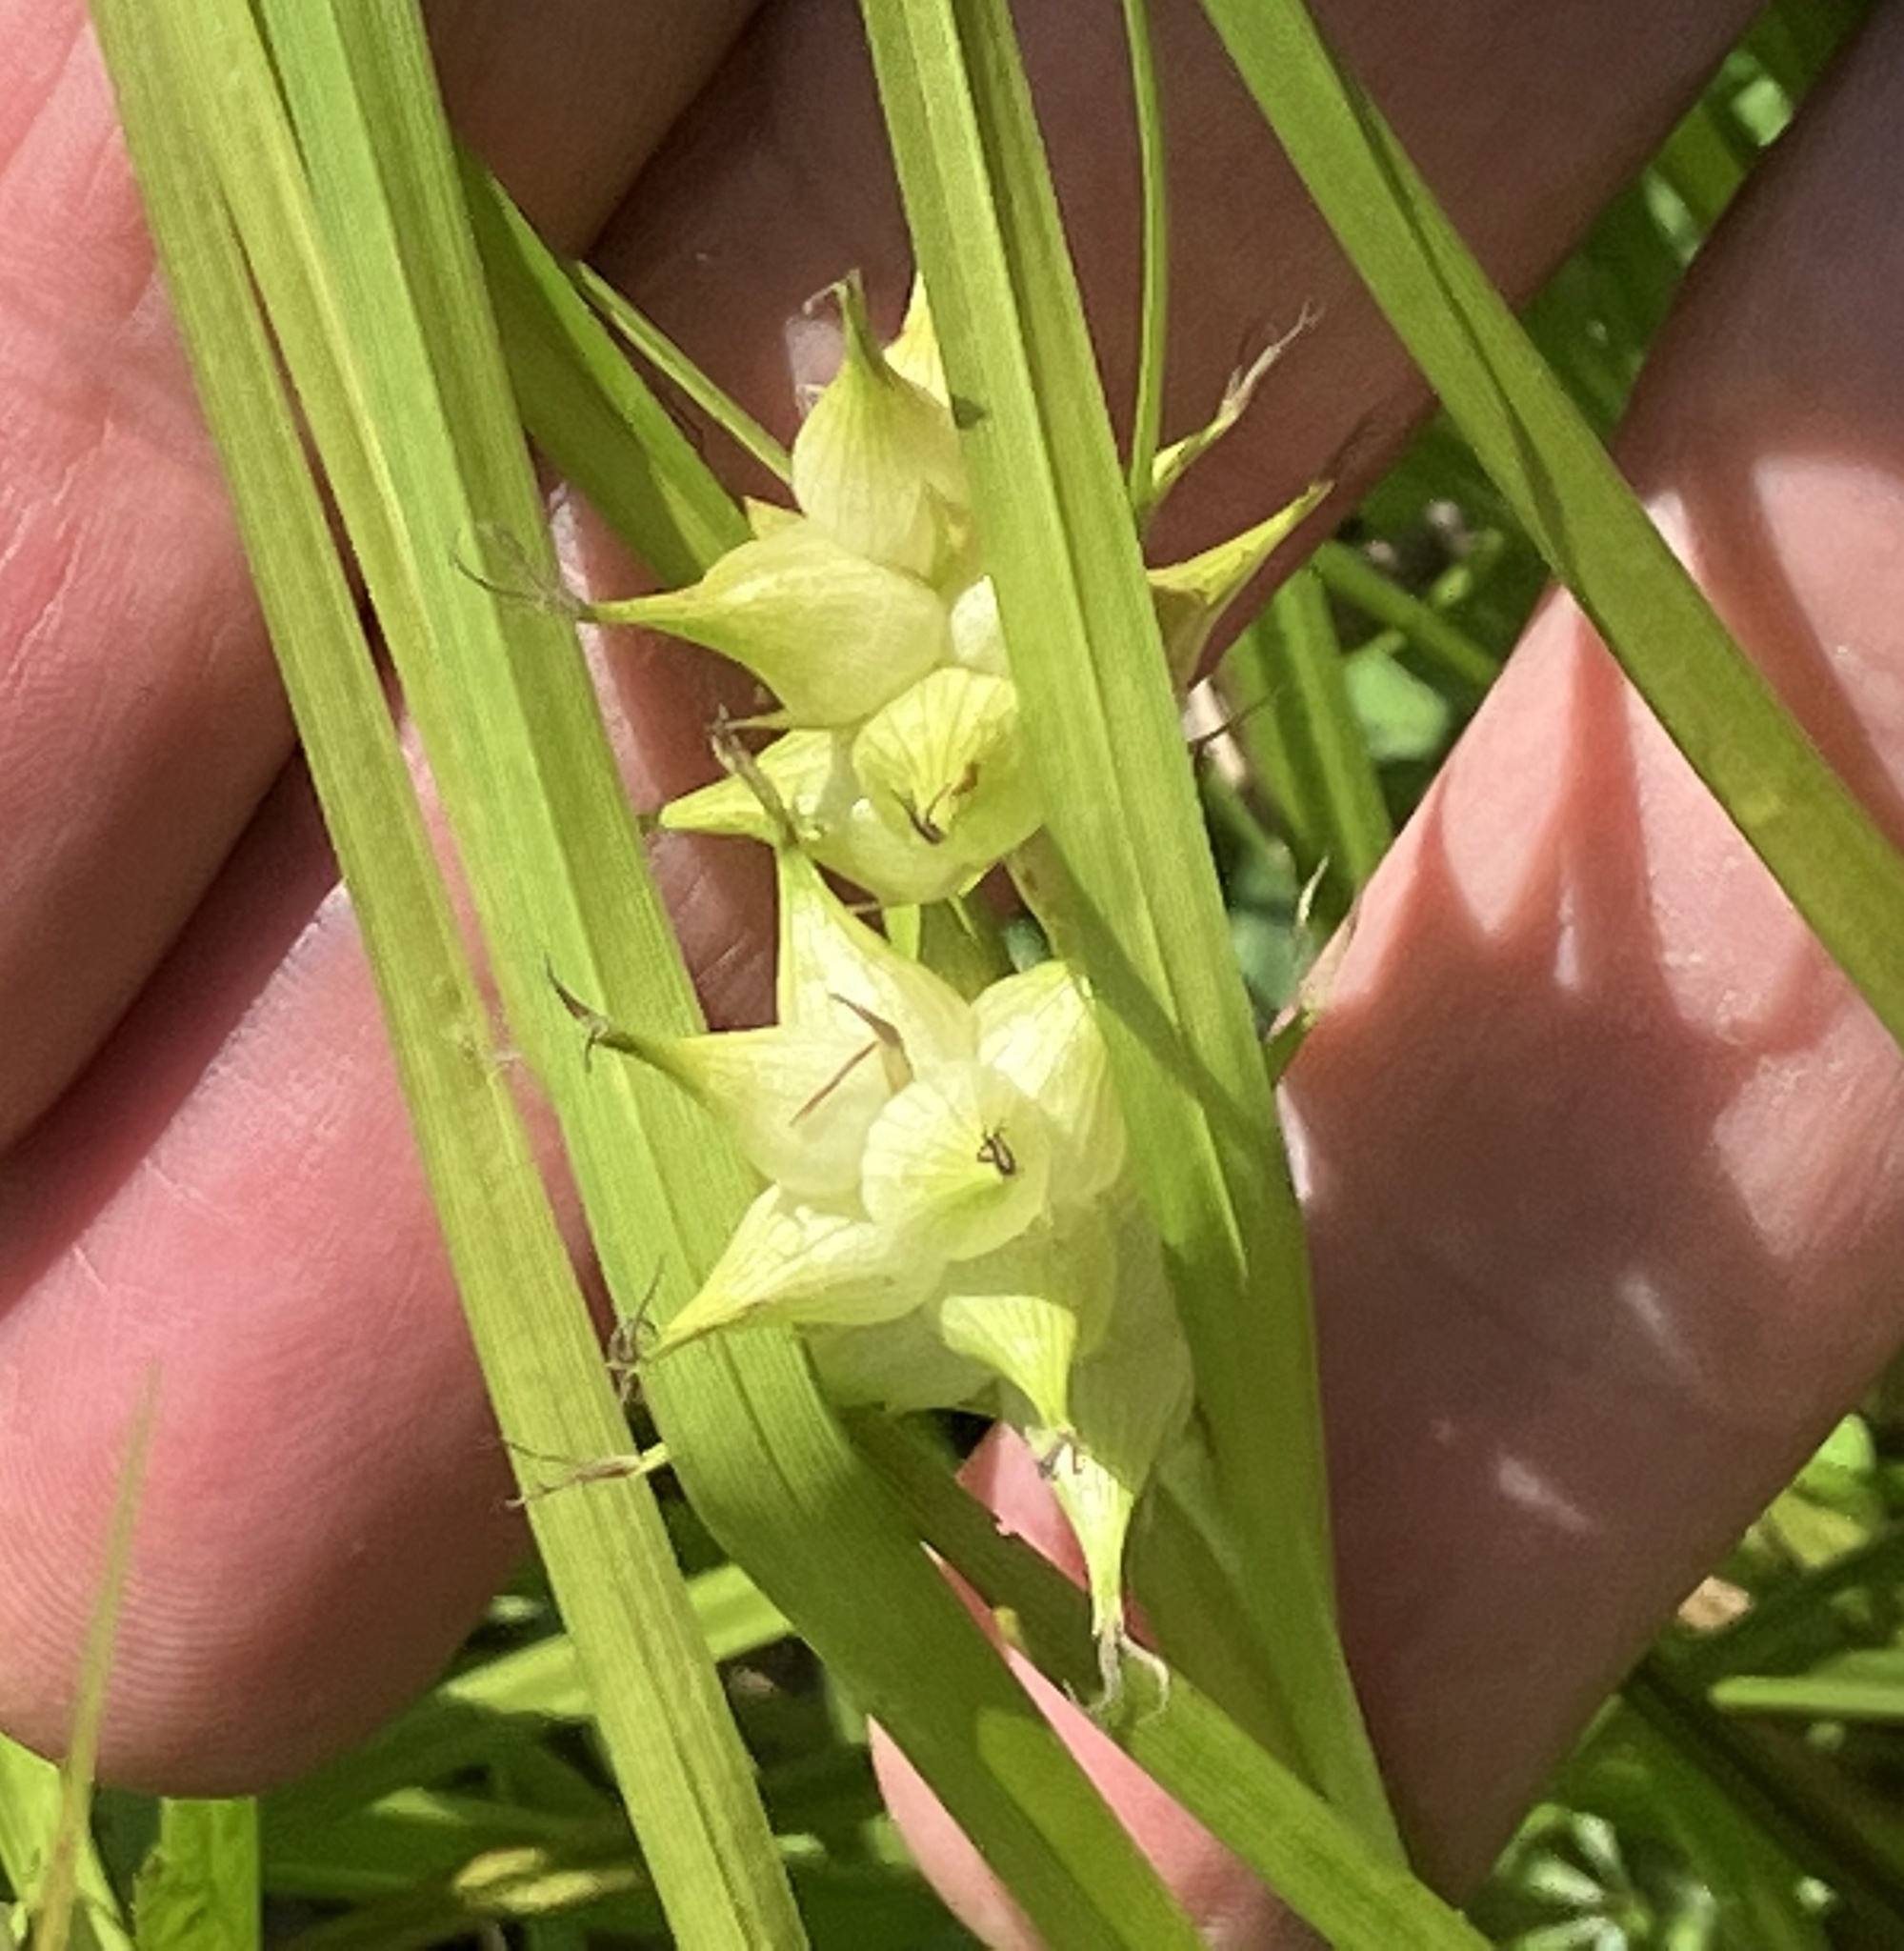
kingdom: Plantae
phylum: Tracheophyta
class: Liliopsida
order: Poales
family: Cyperaceae
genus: Carex
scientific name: Carex intumescens
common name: Greater bladder sedge
